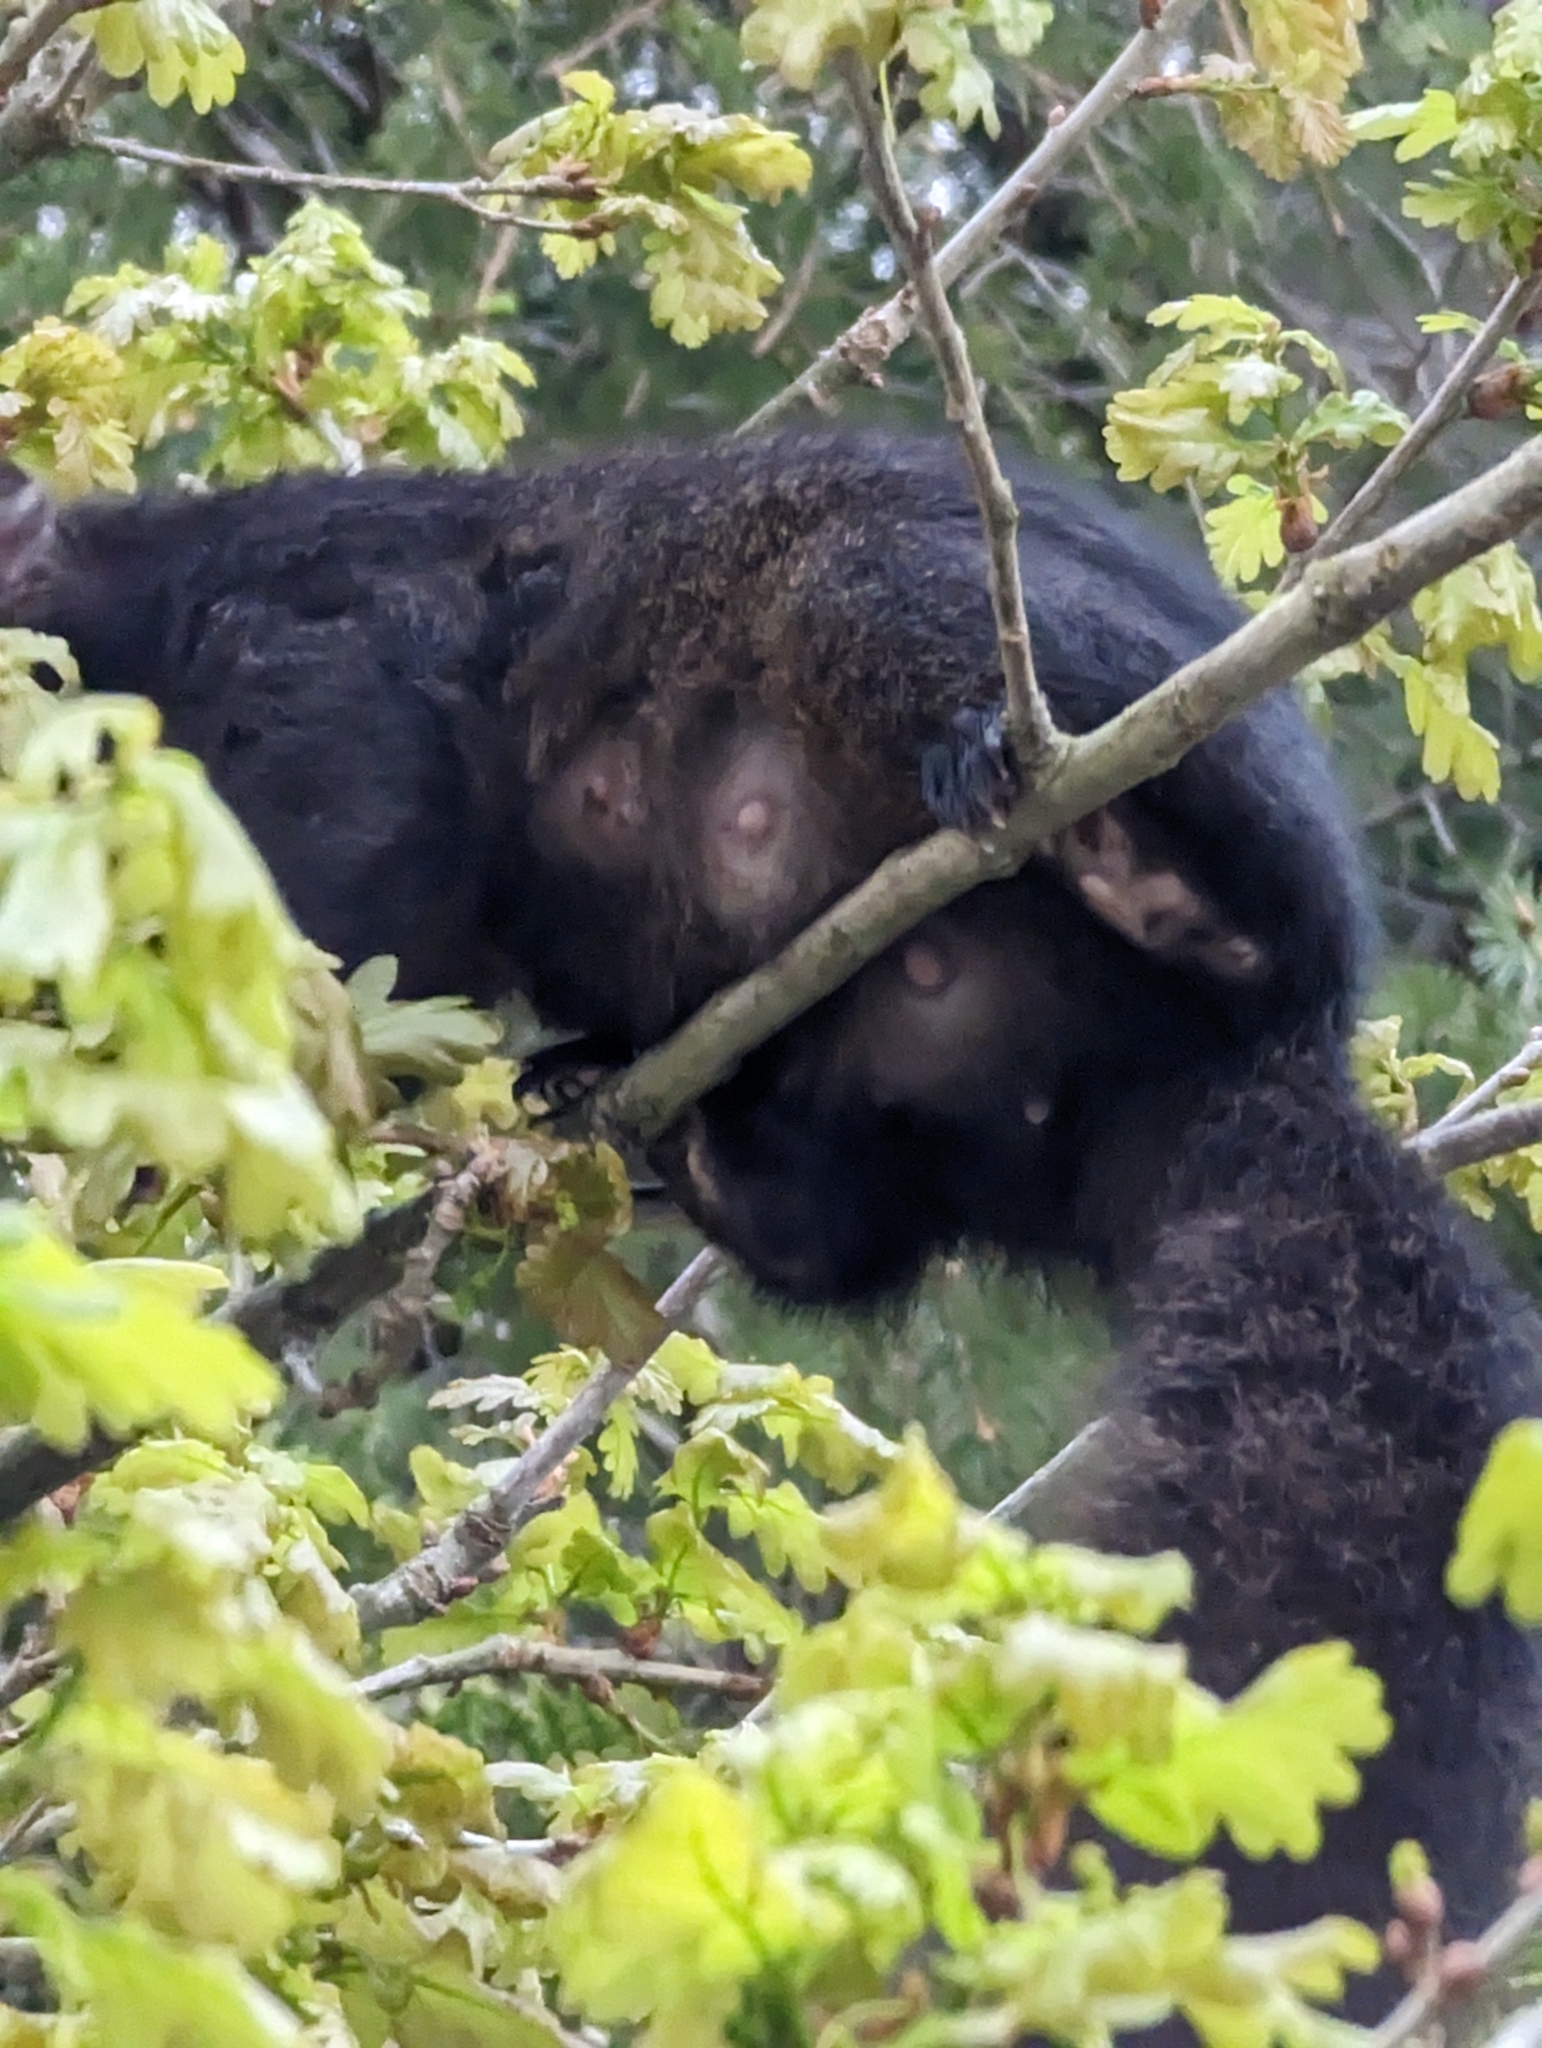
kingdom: Animalia
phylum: Chordata
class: Mammalia
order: Rodentia
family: Sciuridae
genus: Sciurus
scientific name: Sciurus carolinensis
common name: Eastern gray squirrel
